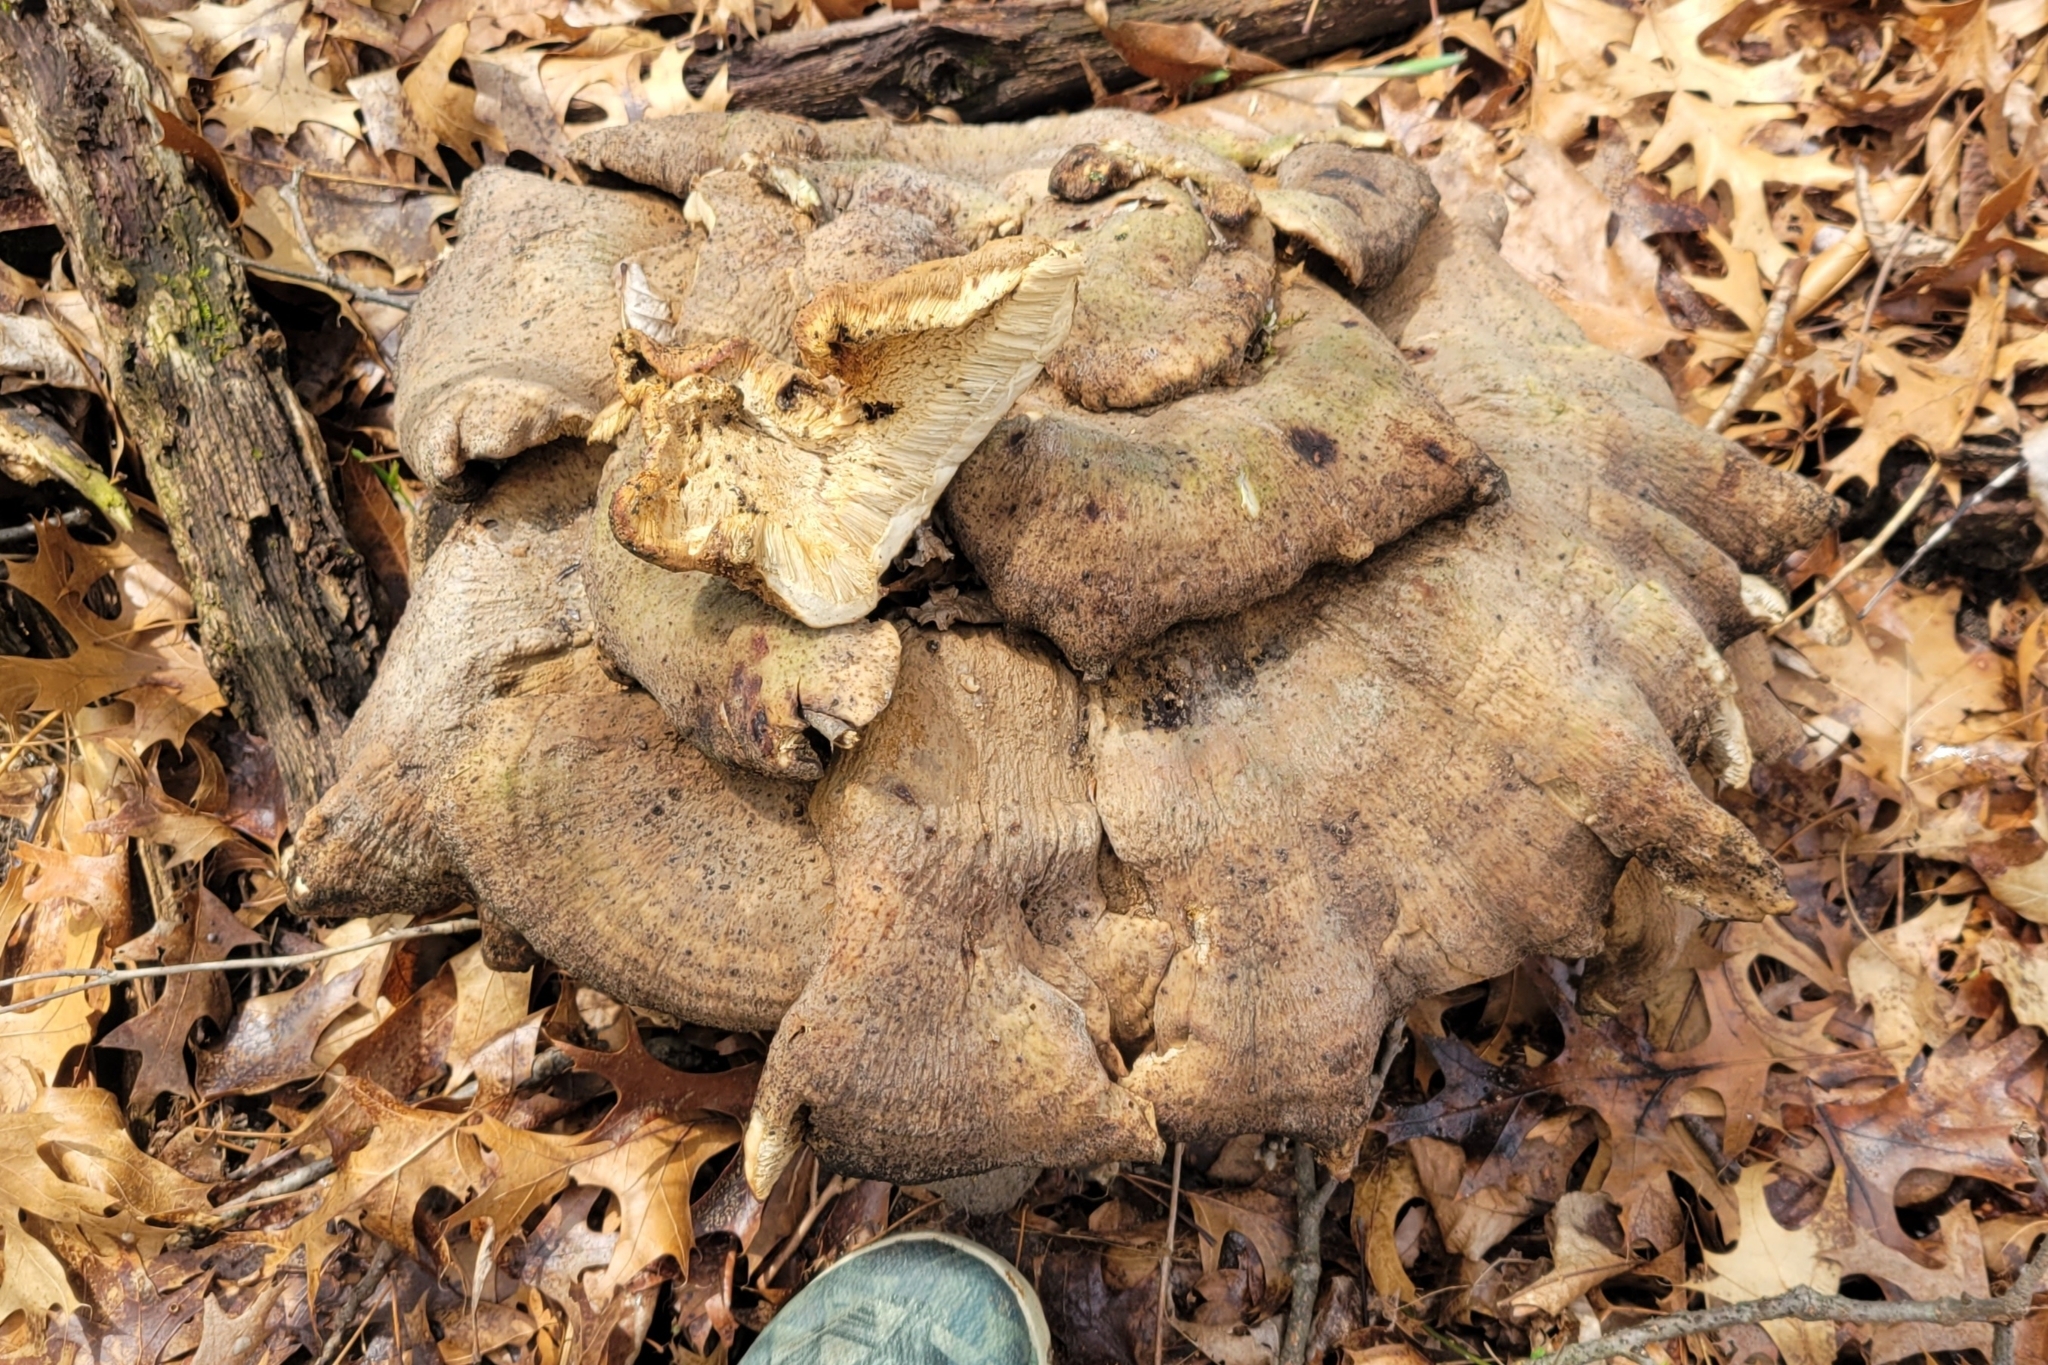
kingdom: Fungi
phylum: Basidiomycota
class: Agaricomycetes
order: Russulales
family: Bondarzewiaceae
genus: Bondarzewia
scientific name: Bondarzewia berkeleyi
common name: Berkeley's polypore
